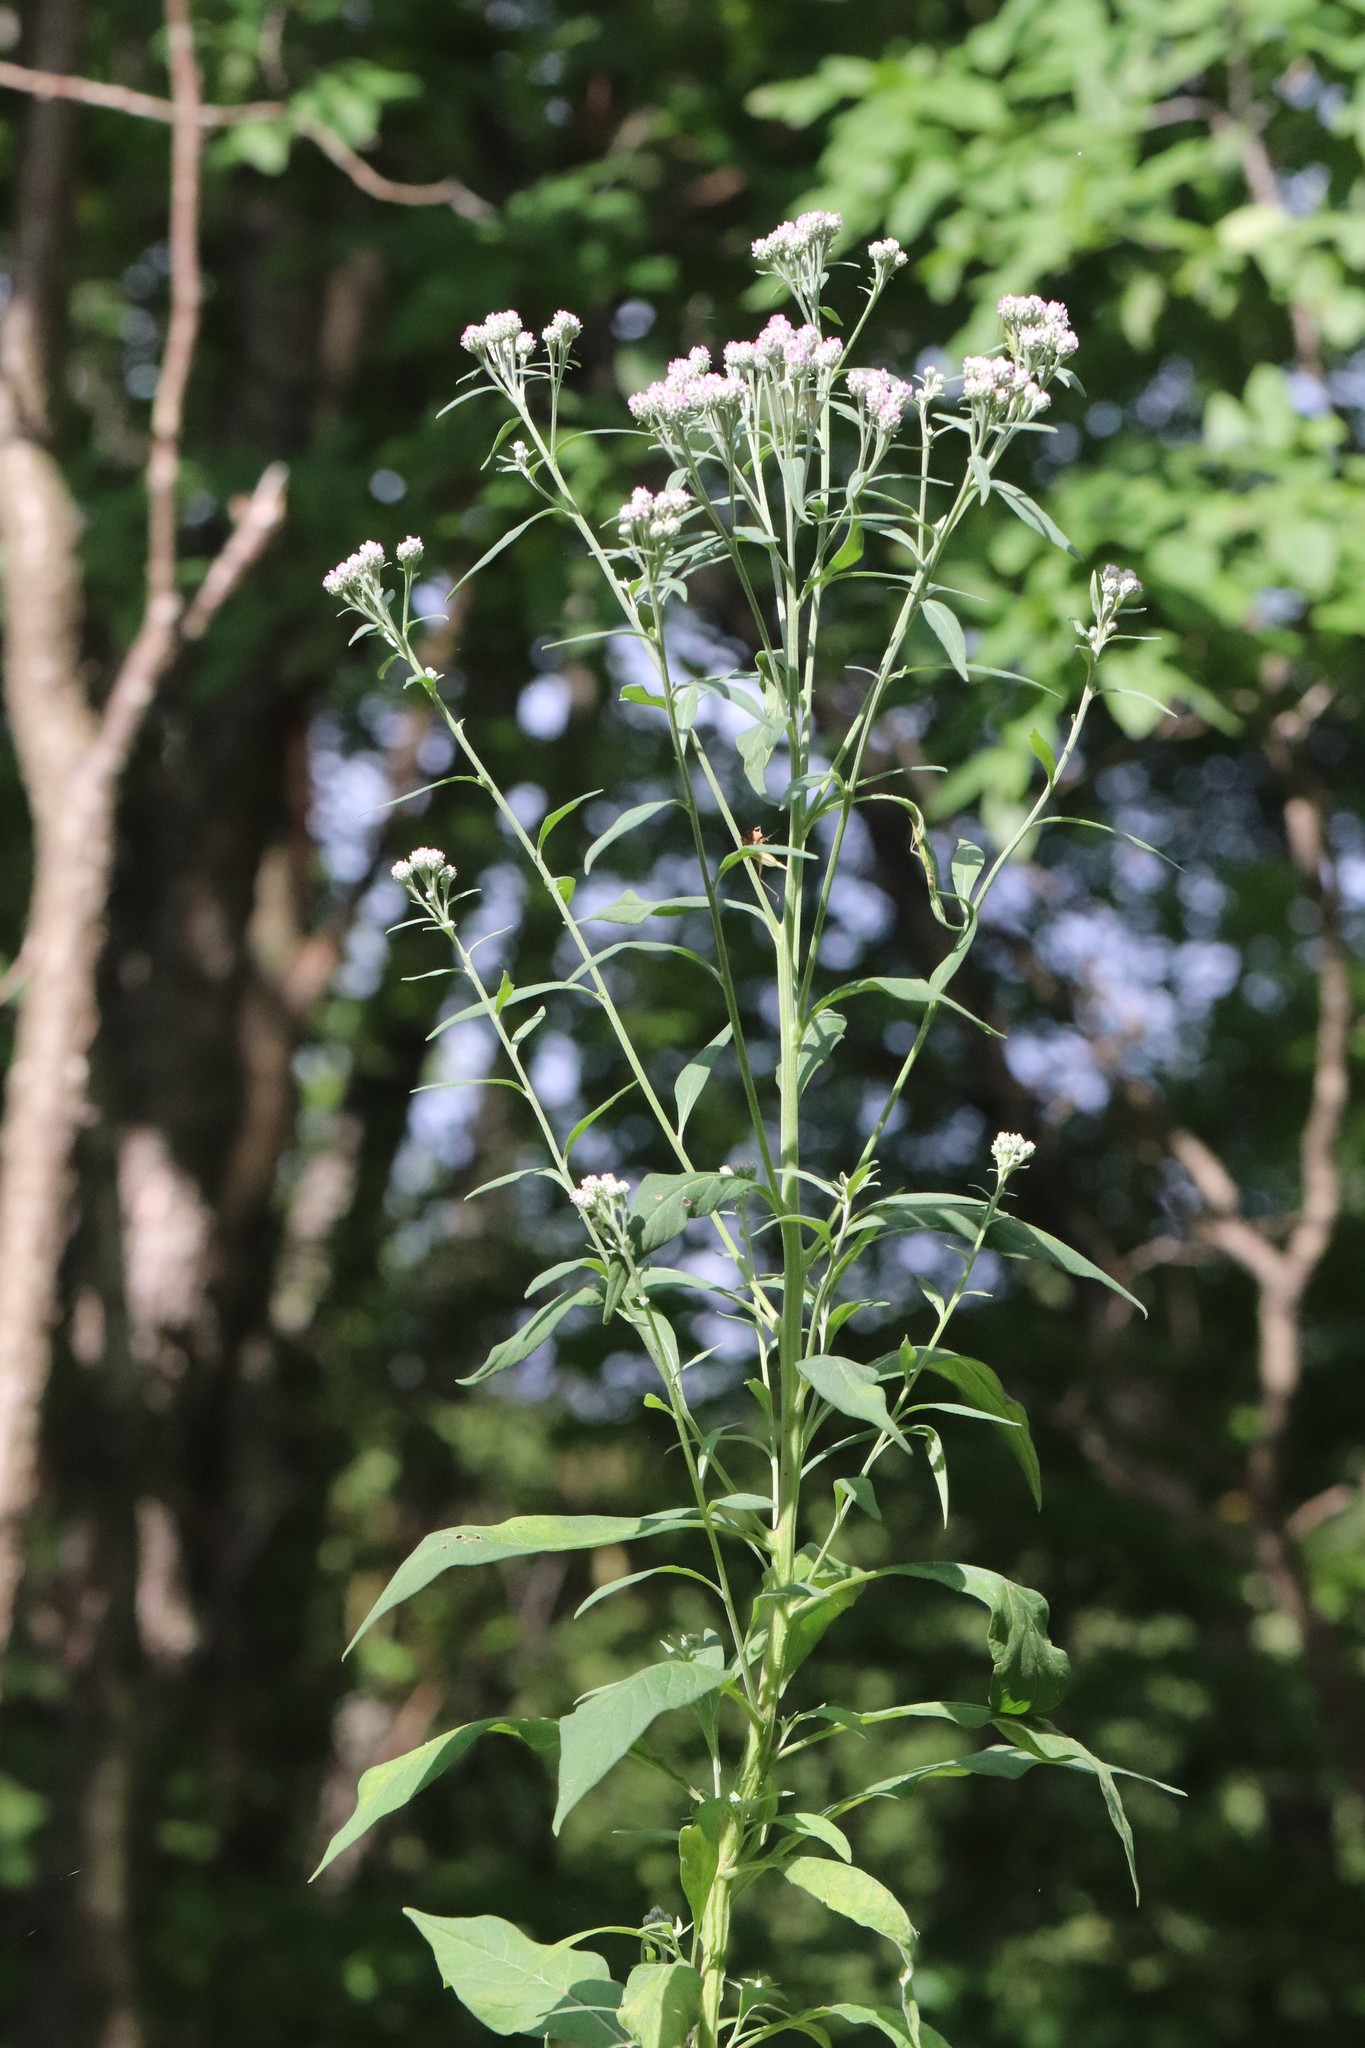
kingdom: Plantae
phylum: Tracheophyta
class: Magnoliopsida
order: Asterales
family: Asteraceae
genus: Saussurea
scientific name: Saussurea neopulchella
